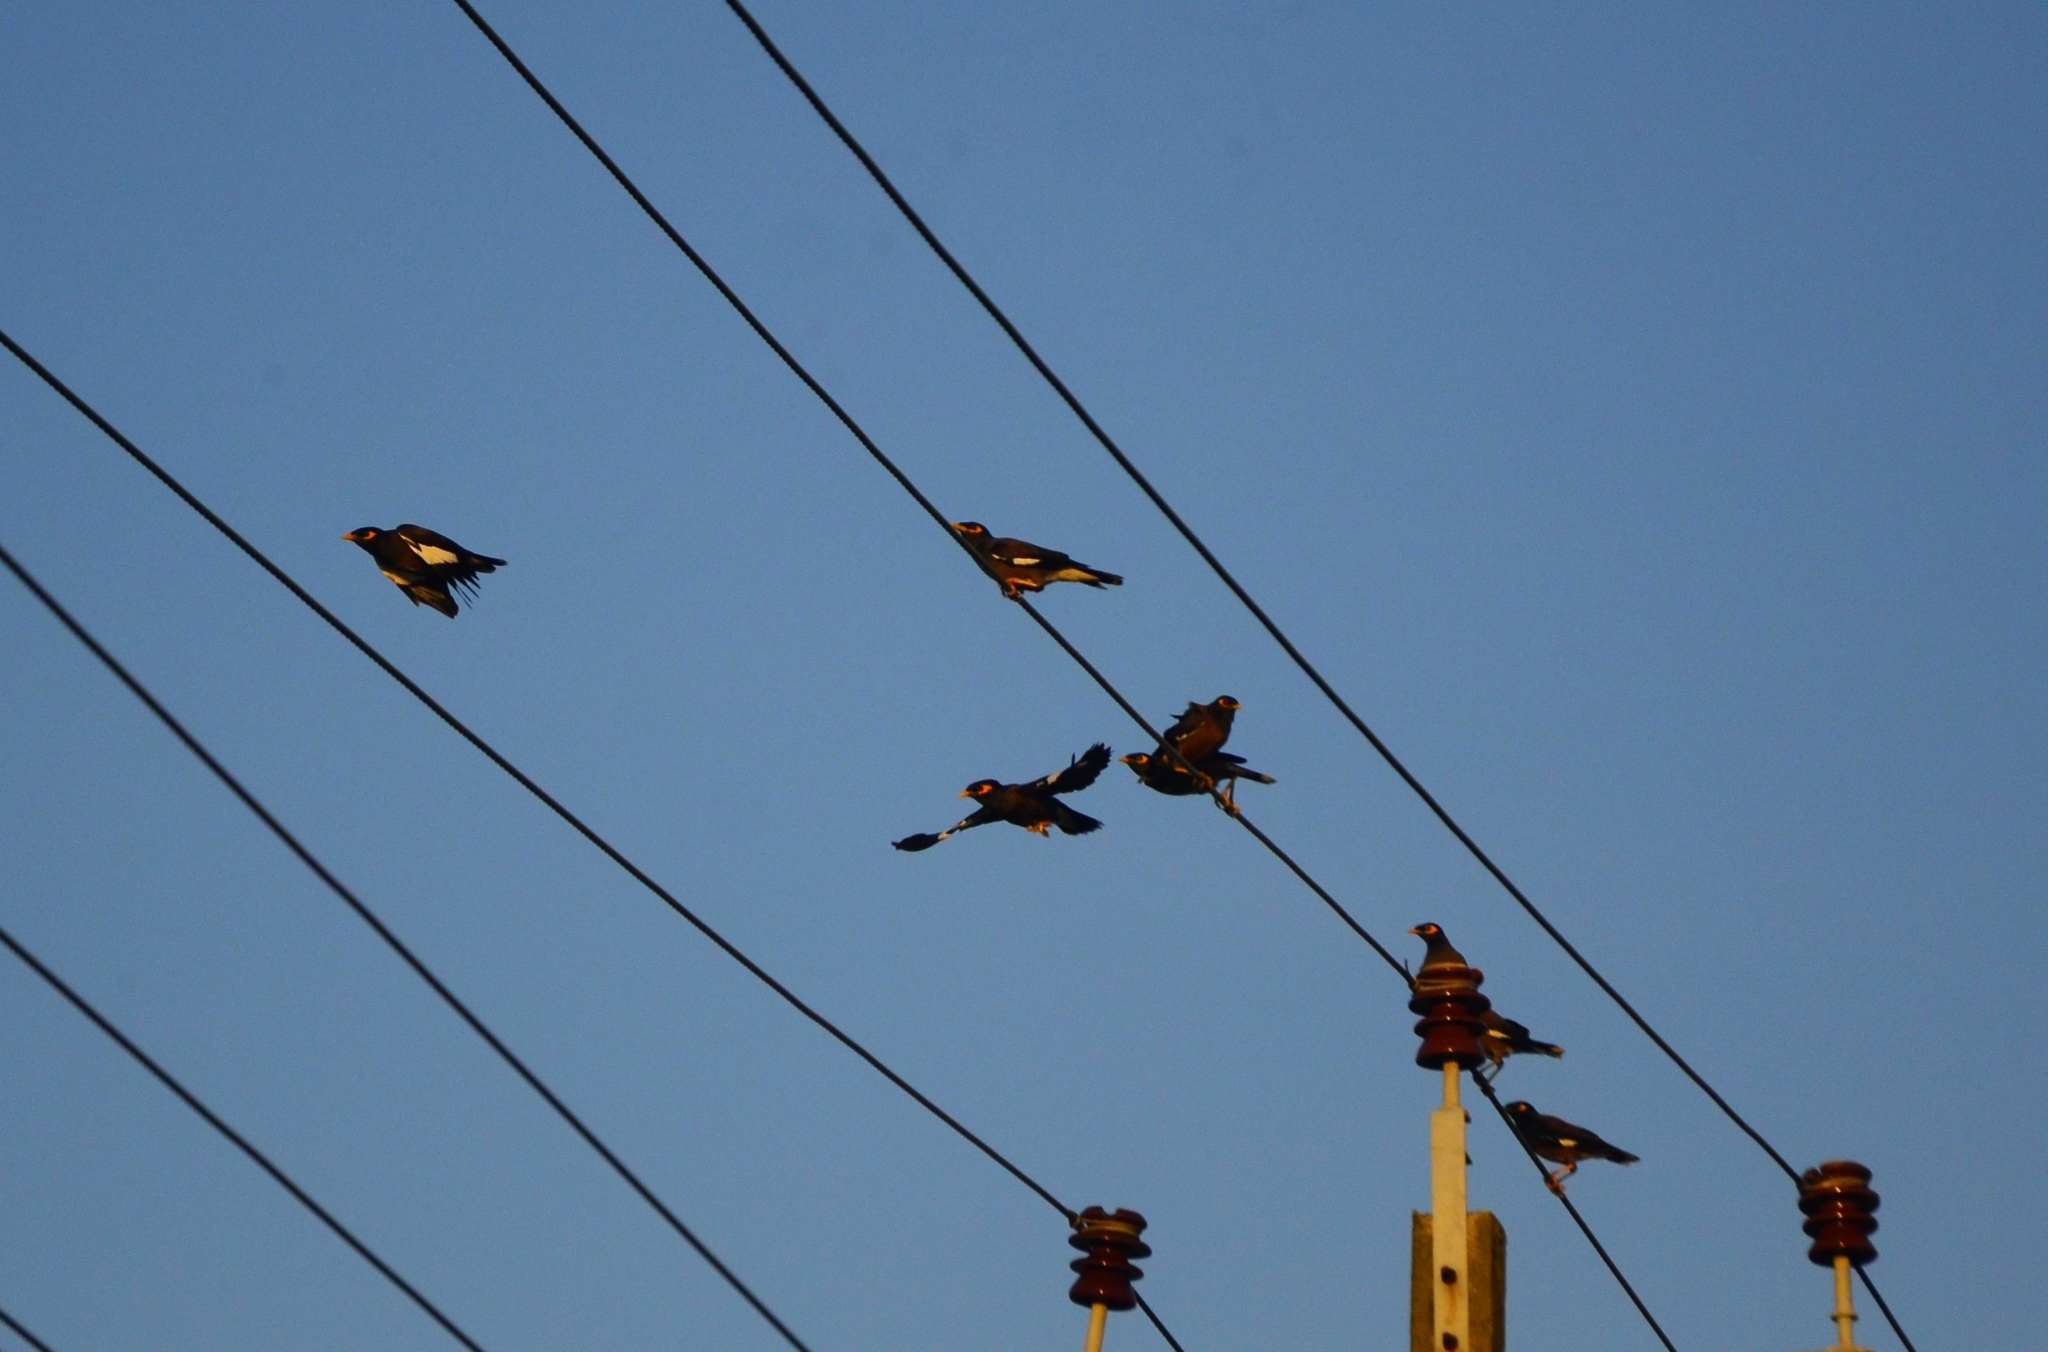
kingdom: Animalia
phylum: Chordata
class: Aves
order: Passeriformes
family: Sturnidae
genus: Acridotheres
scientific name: Acridotheres tristis
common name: Common myna
